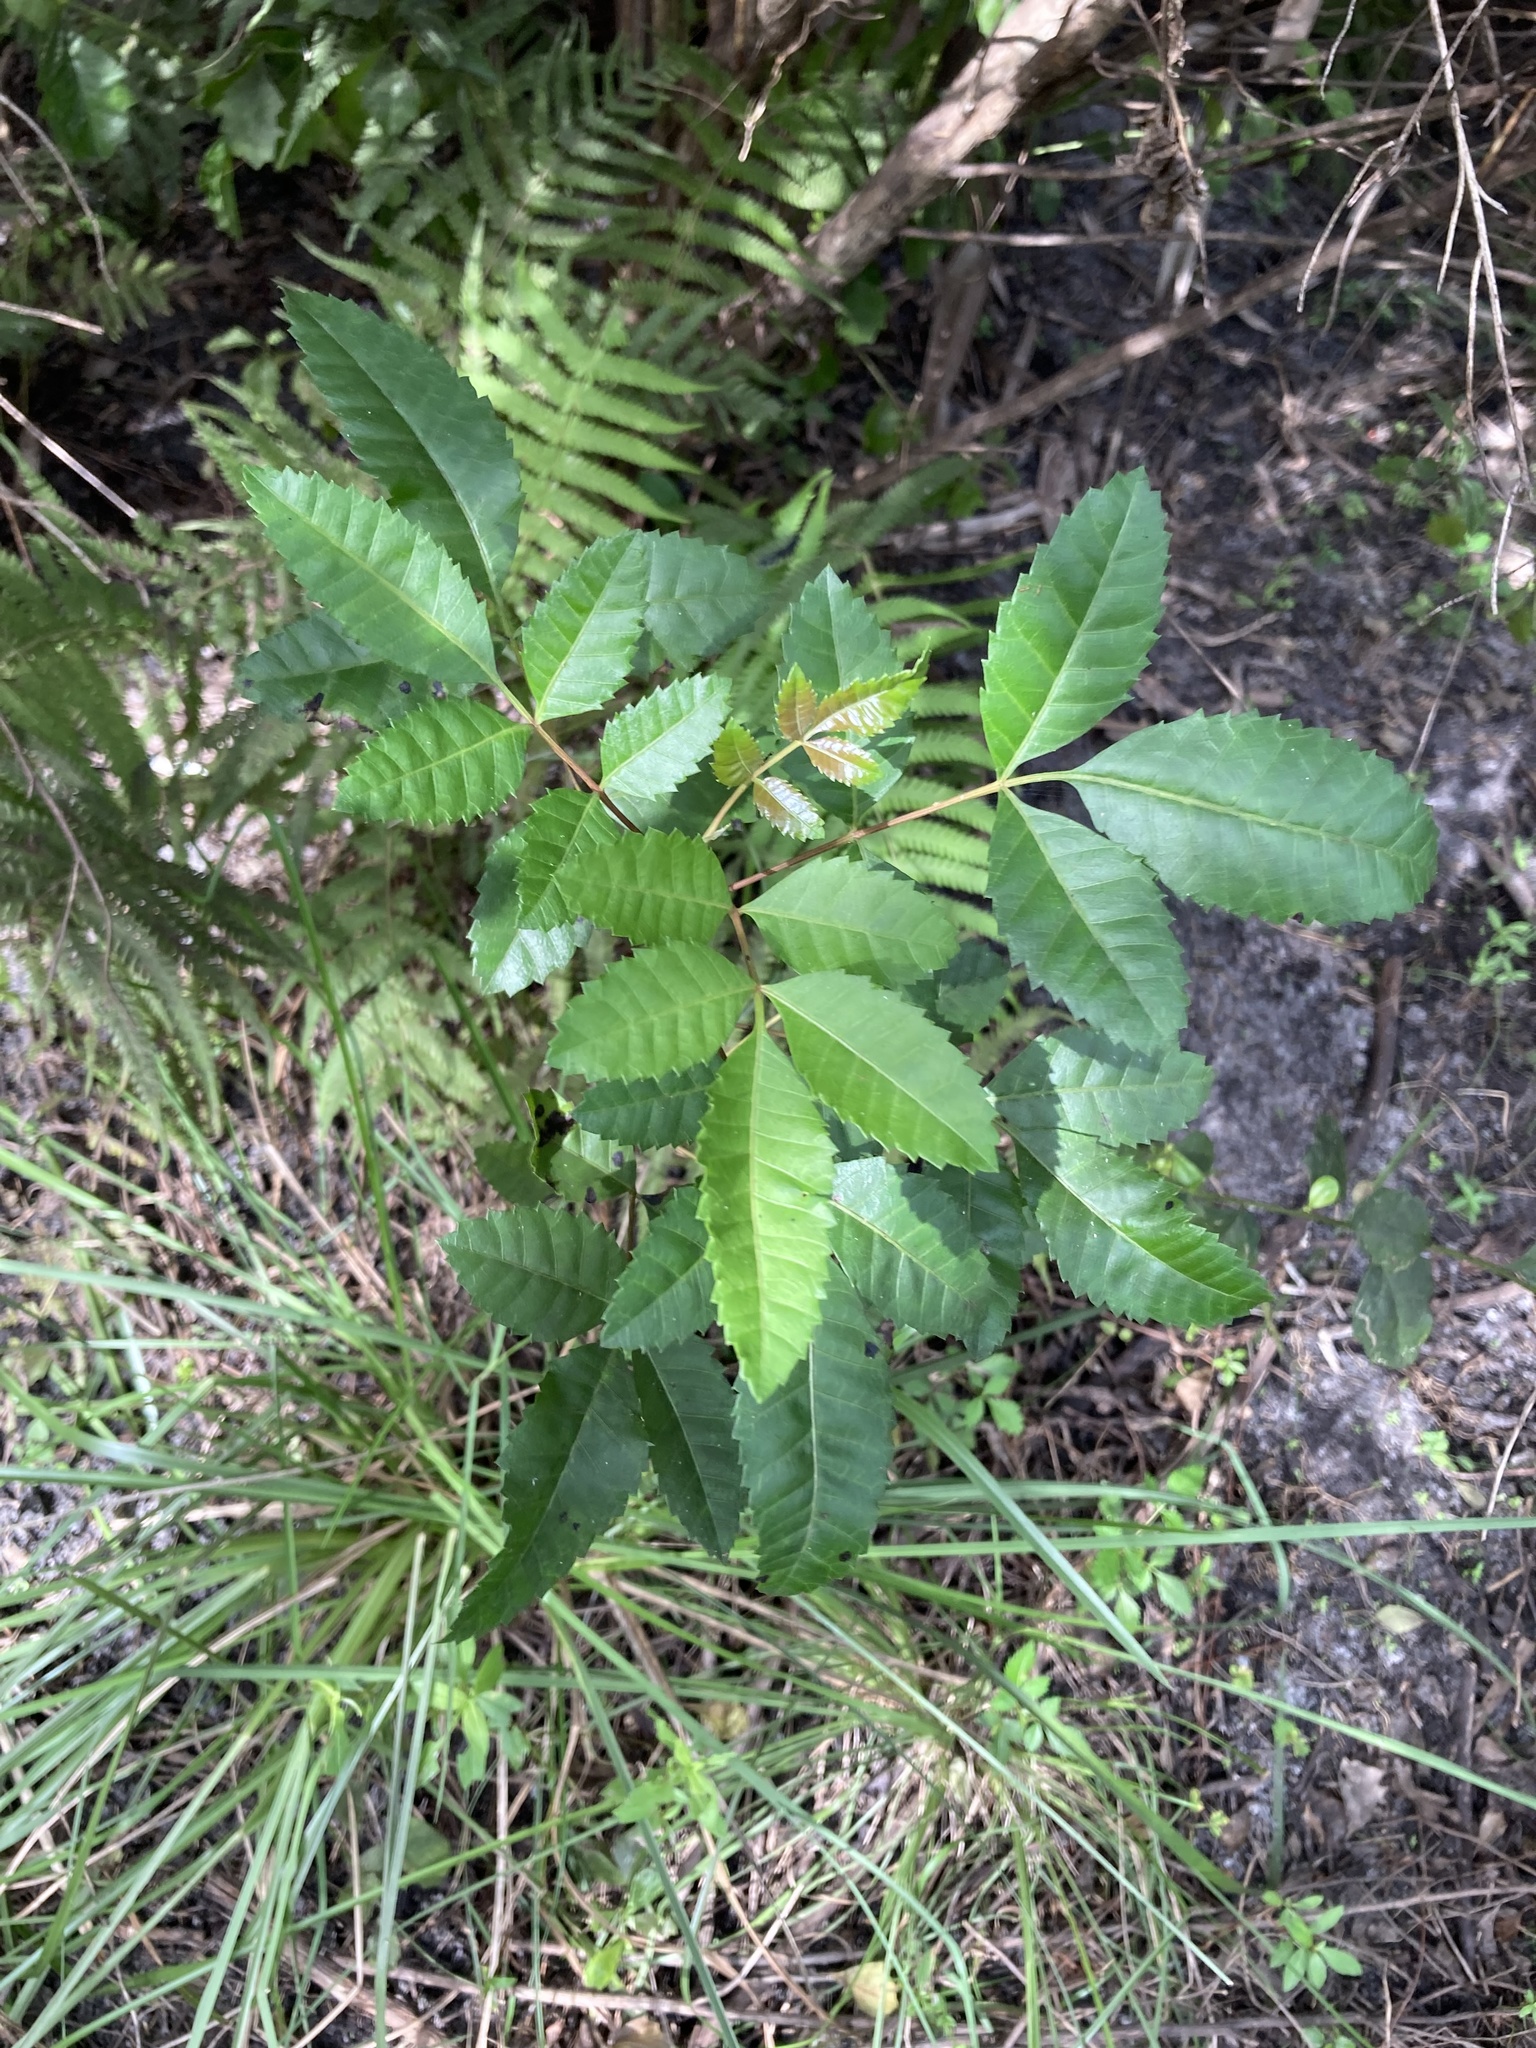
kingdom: Plantae
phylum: Tracheophyta
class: Magnoliopsida
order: Sapindales
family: Anacardiaceae
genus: Schinus
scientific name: Schinus terebinthifolia
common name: Brazilian peppertree
